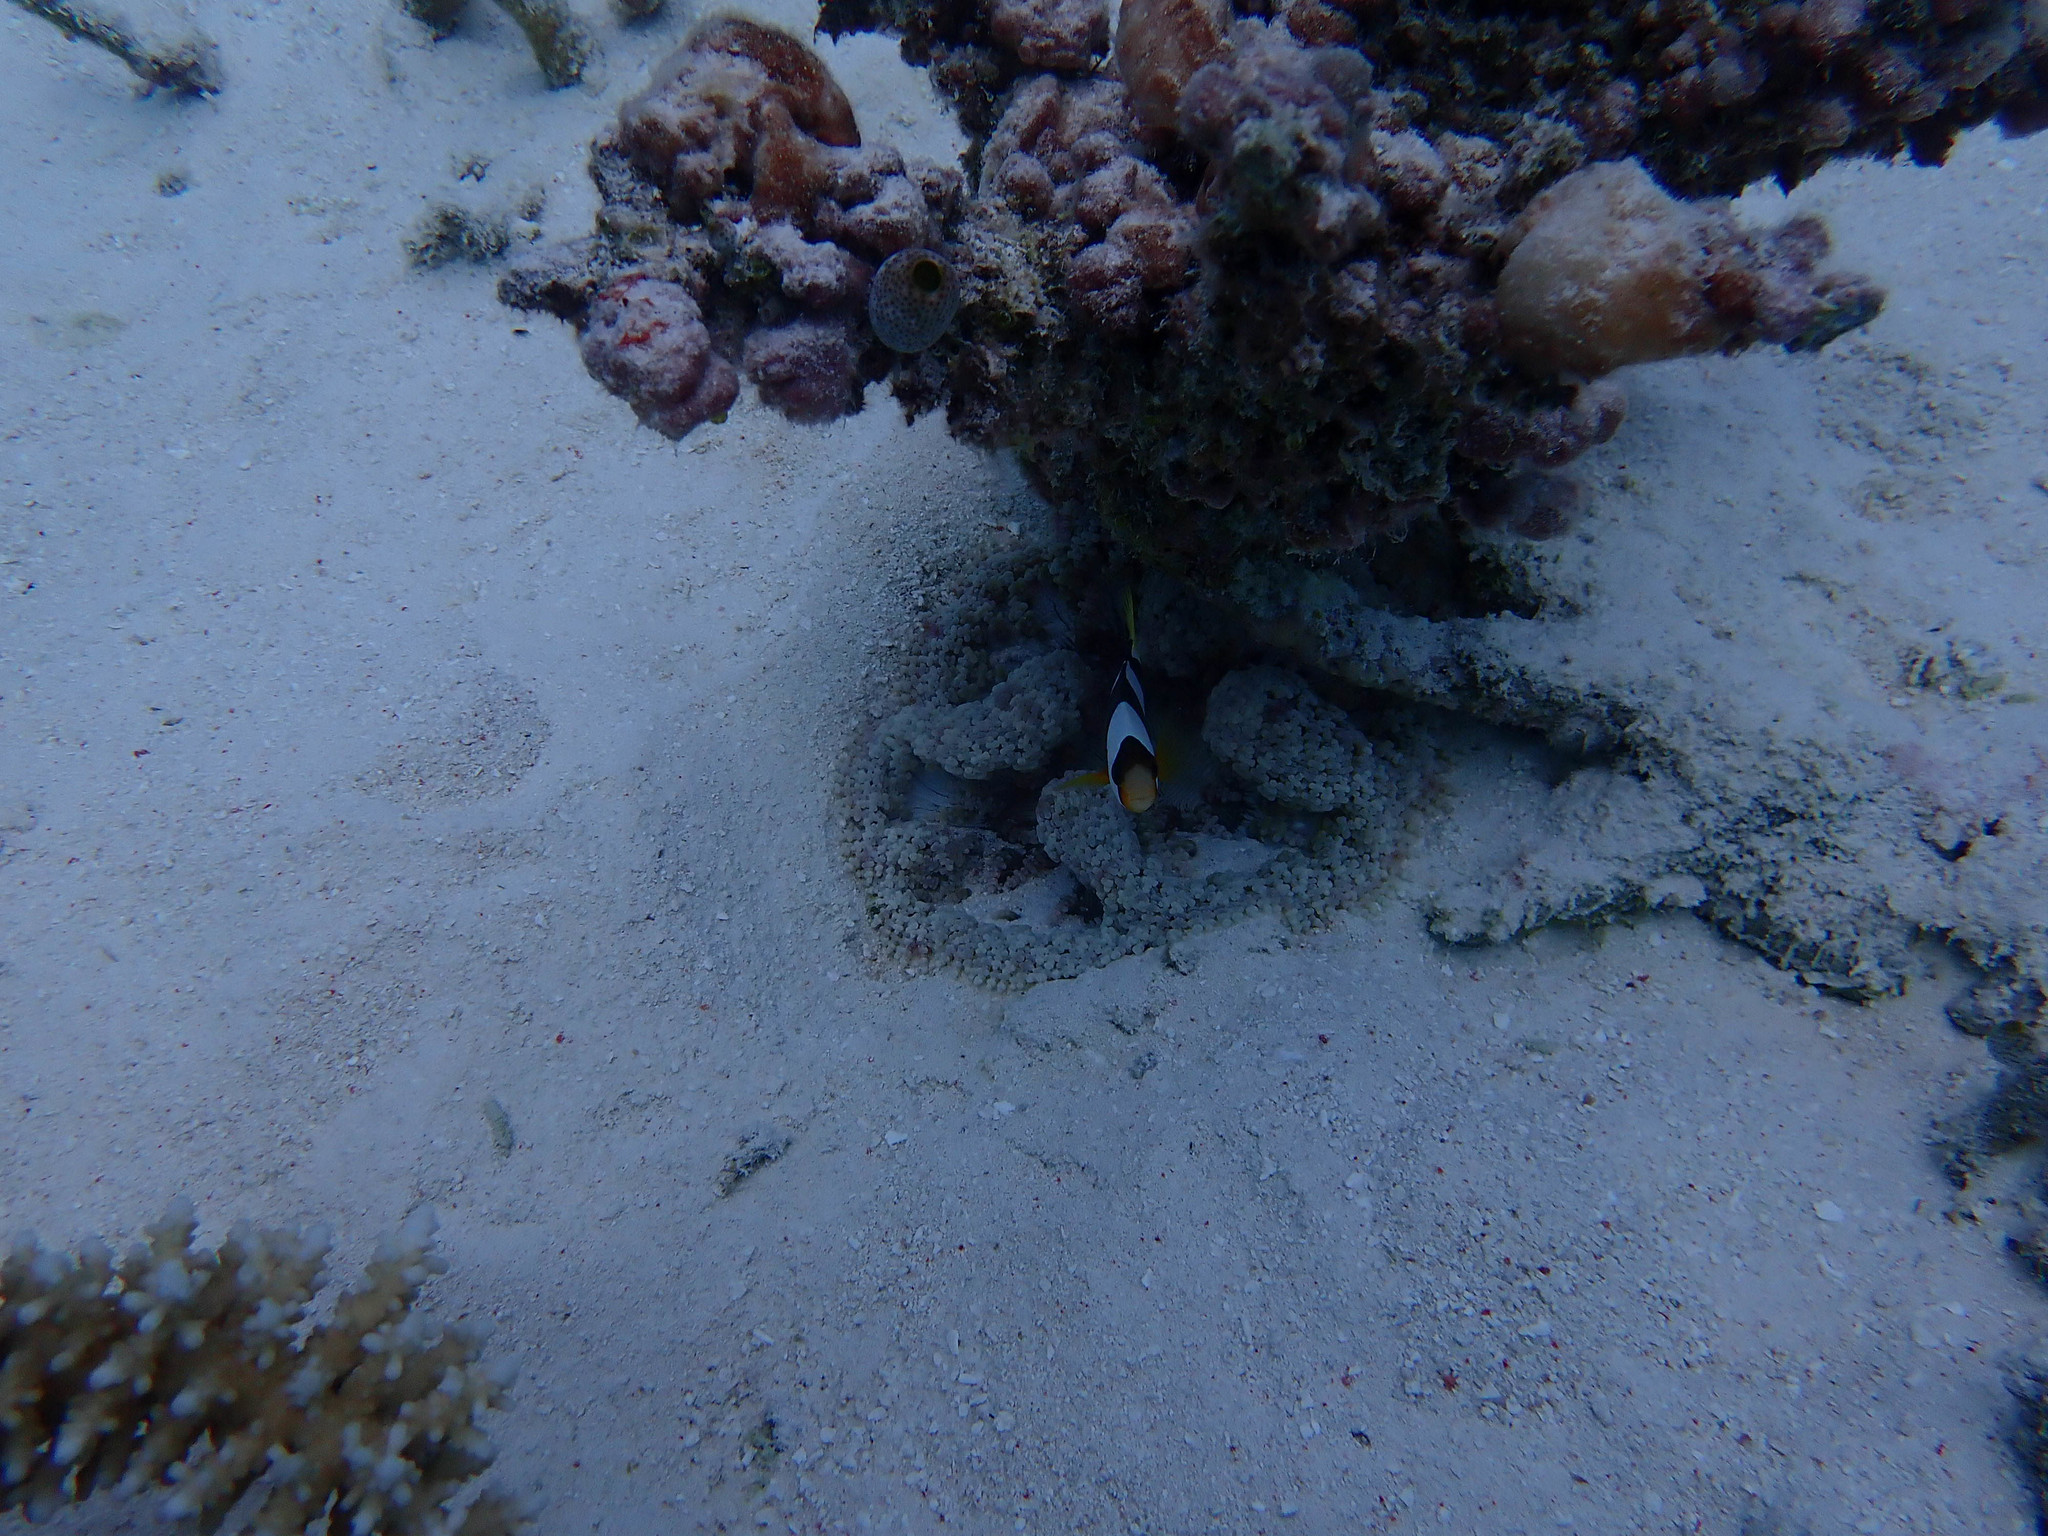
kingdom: Animalia
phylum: Cnidaria
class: Anthozoa
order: Actiniaria
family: Heteractidae
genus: Heteractis
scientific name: Heteractis aurora
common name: Beaded sea anemone
